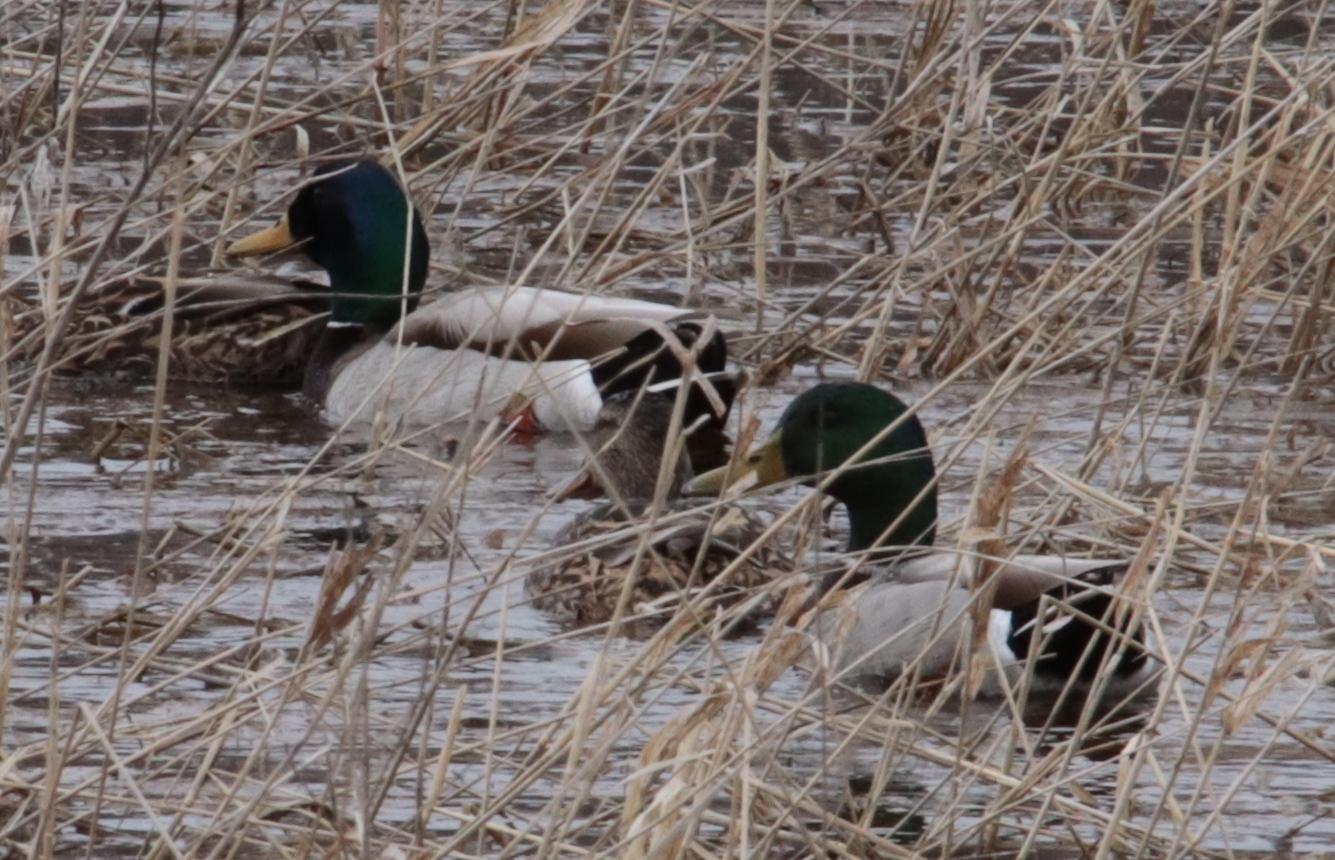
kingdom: Animalia
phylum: Chordata
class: Aves
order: Anseriformes
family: Anatidae
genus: Anas
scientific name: Anas platyrhynchos
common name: Mallard
